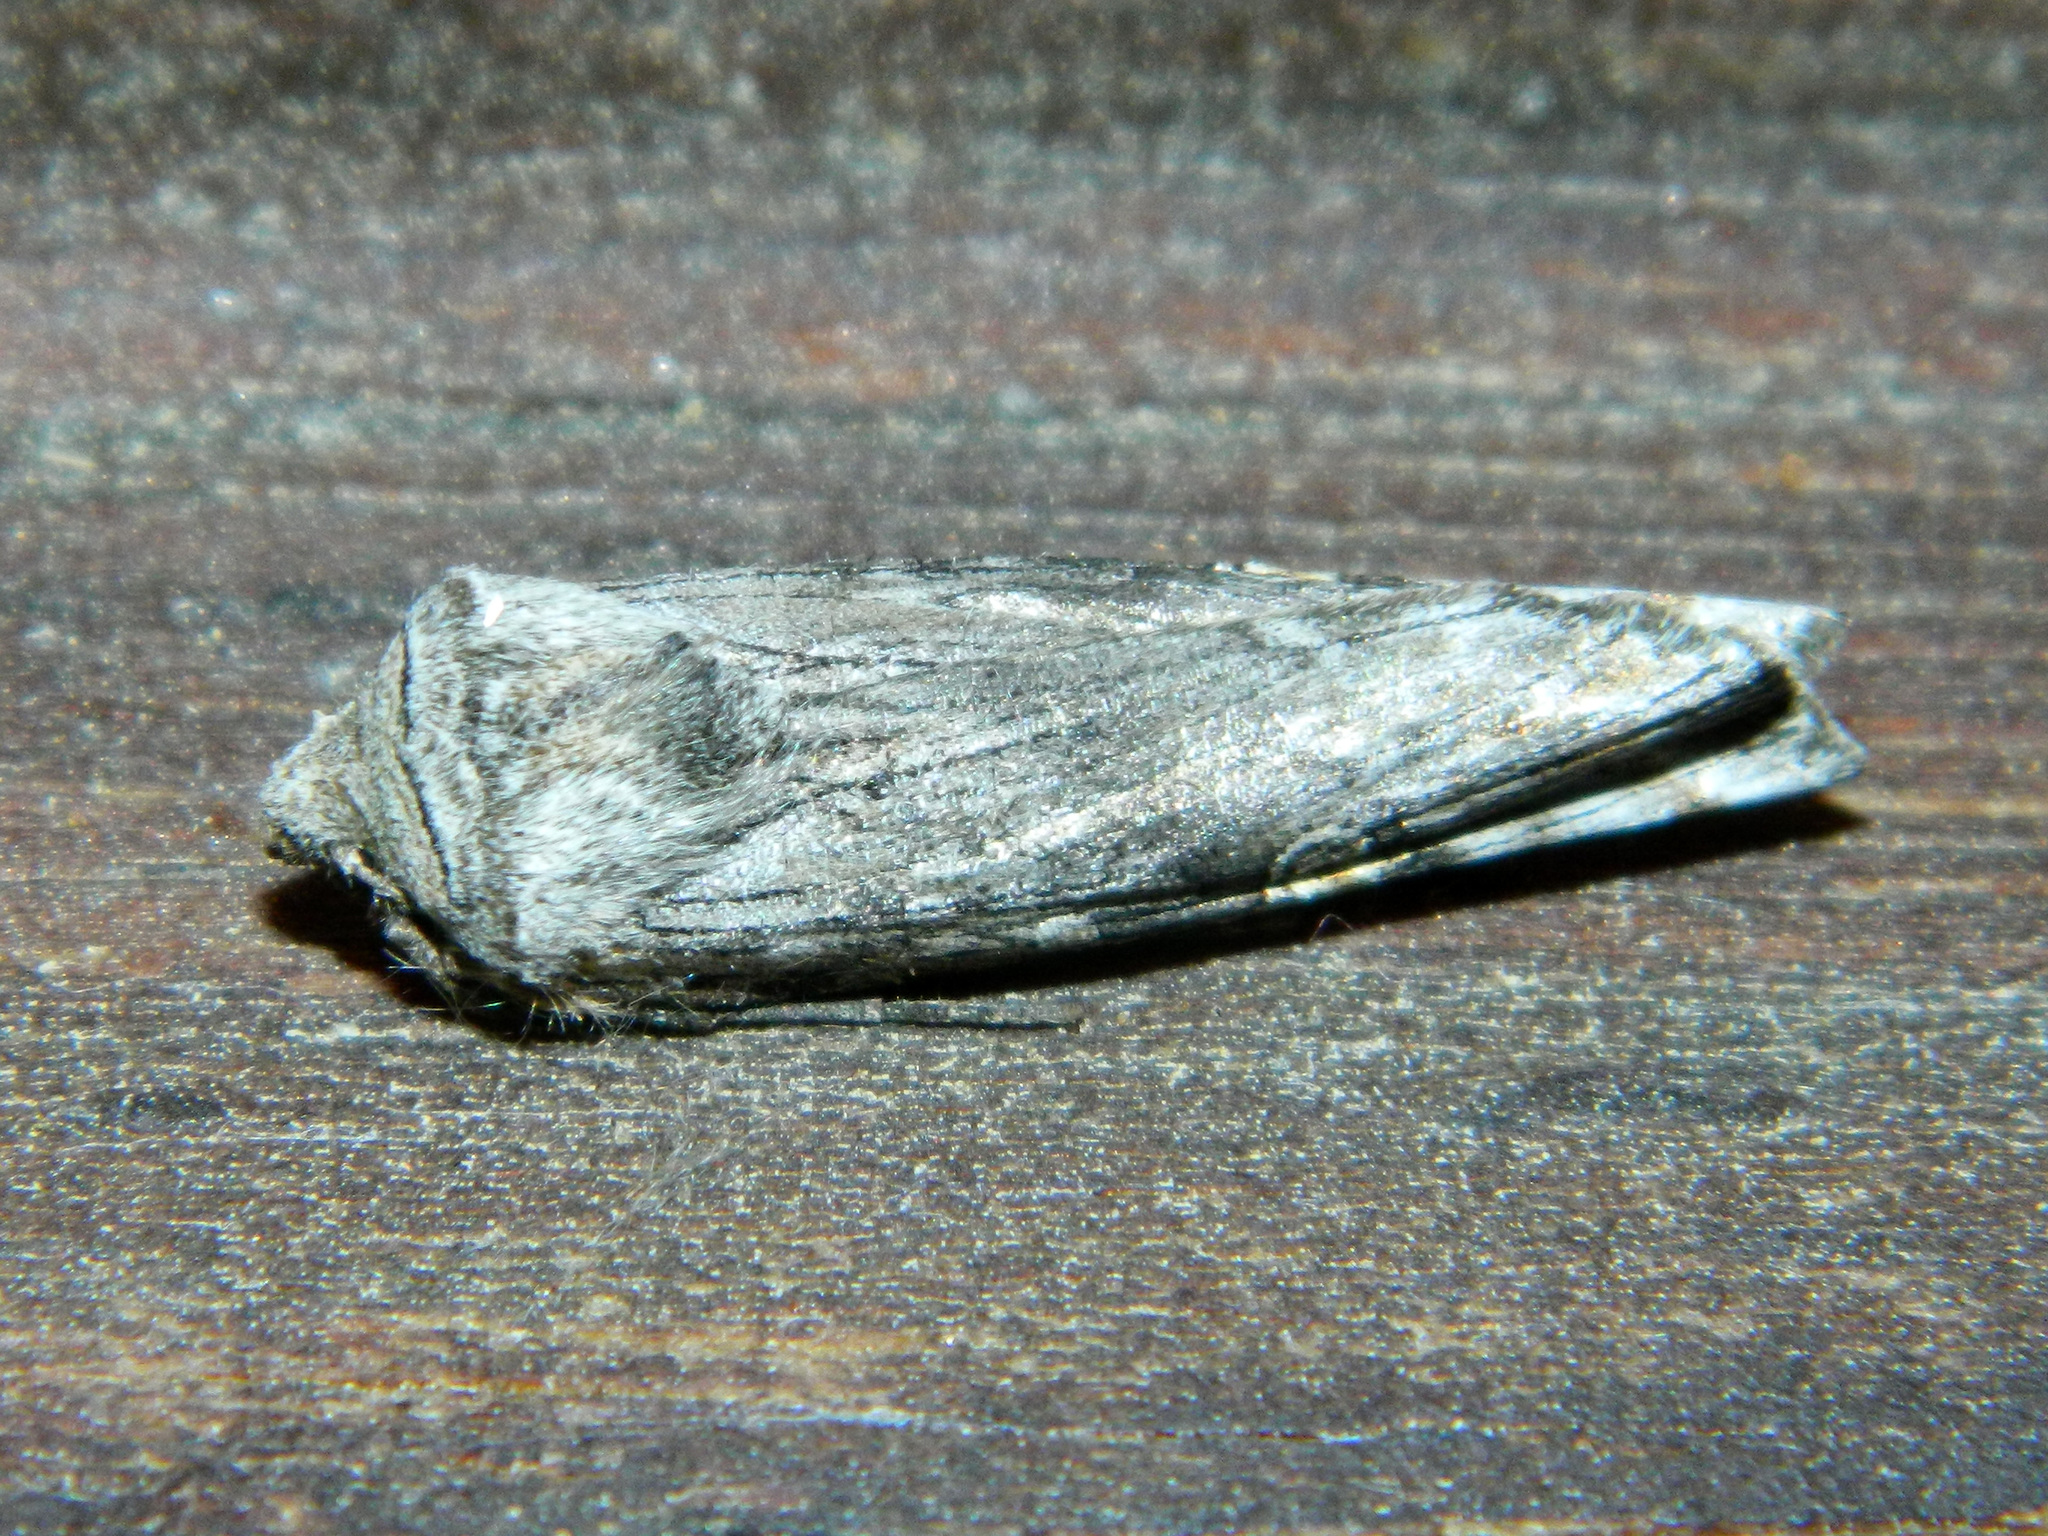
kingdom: Animalia
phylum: Arthropoda
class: Insecta
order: Lepidoptera
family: Noctuidae
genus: Xylena
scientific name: Xylena germana
